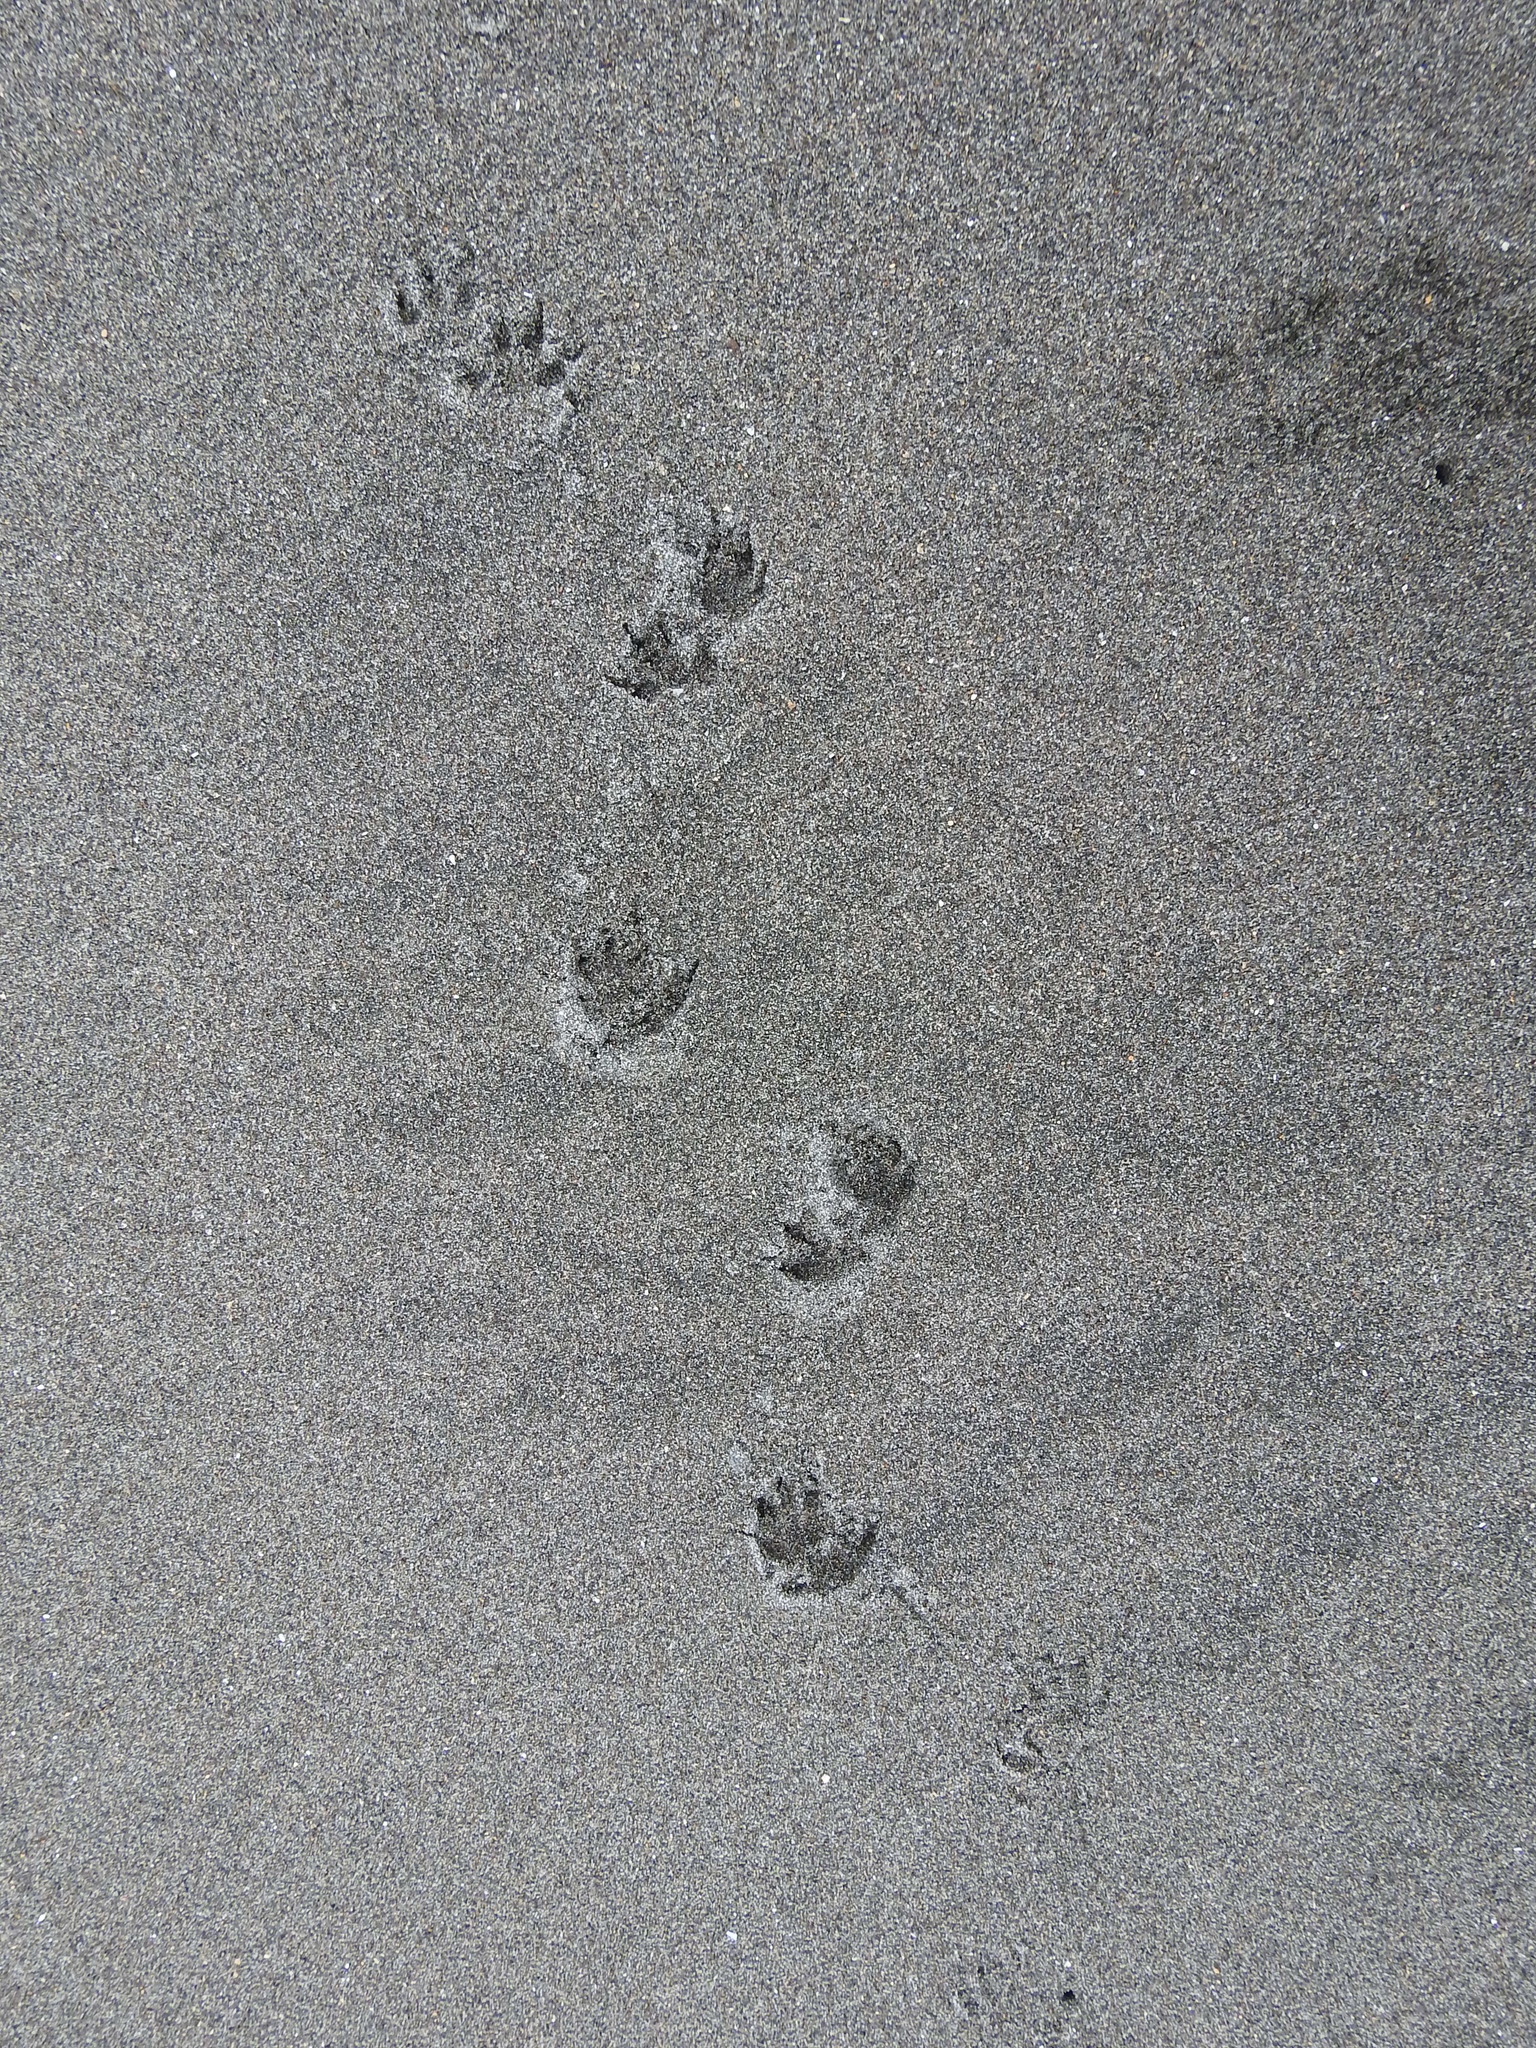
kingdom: Animalia
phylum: Chordata
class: Mammalia
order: Erinaceomorpha
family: Erinaceidae
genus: Erinaceus
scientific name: Erinaceus europaeus
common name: West european hedgehog
